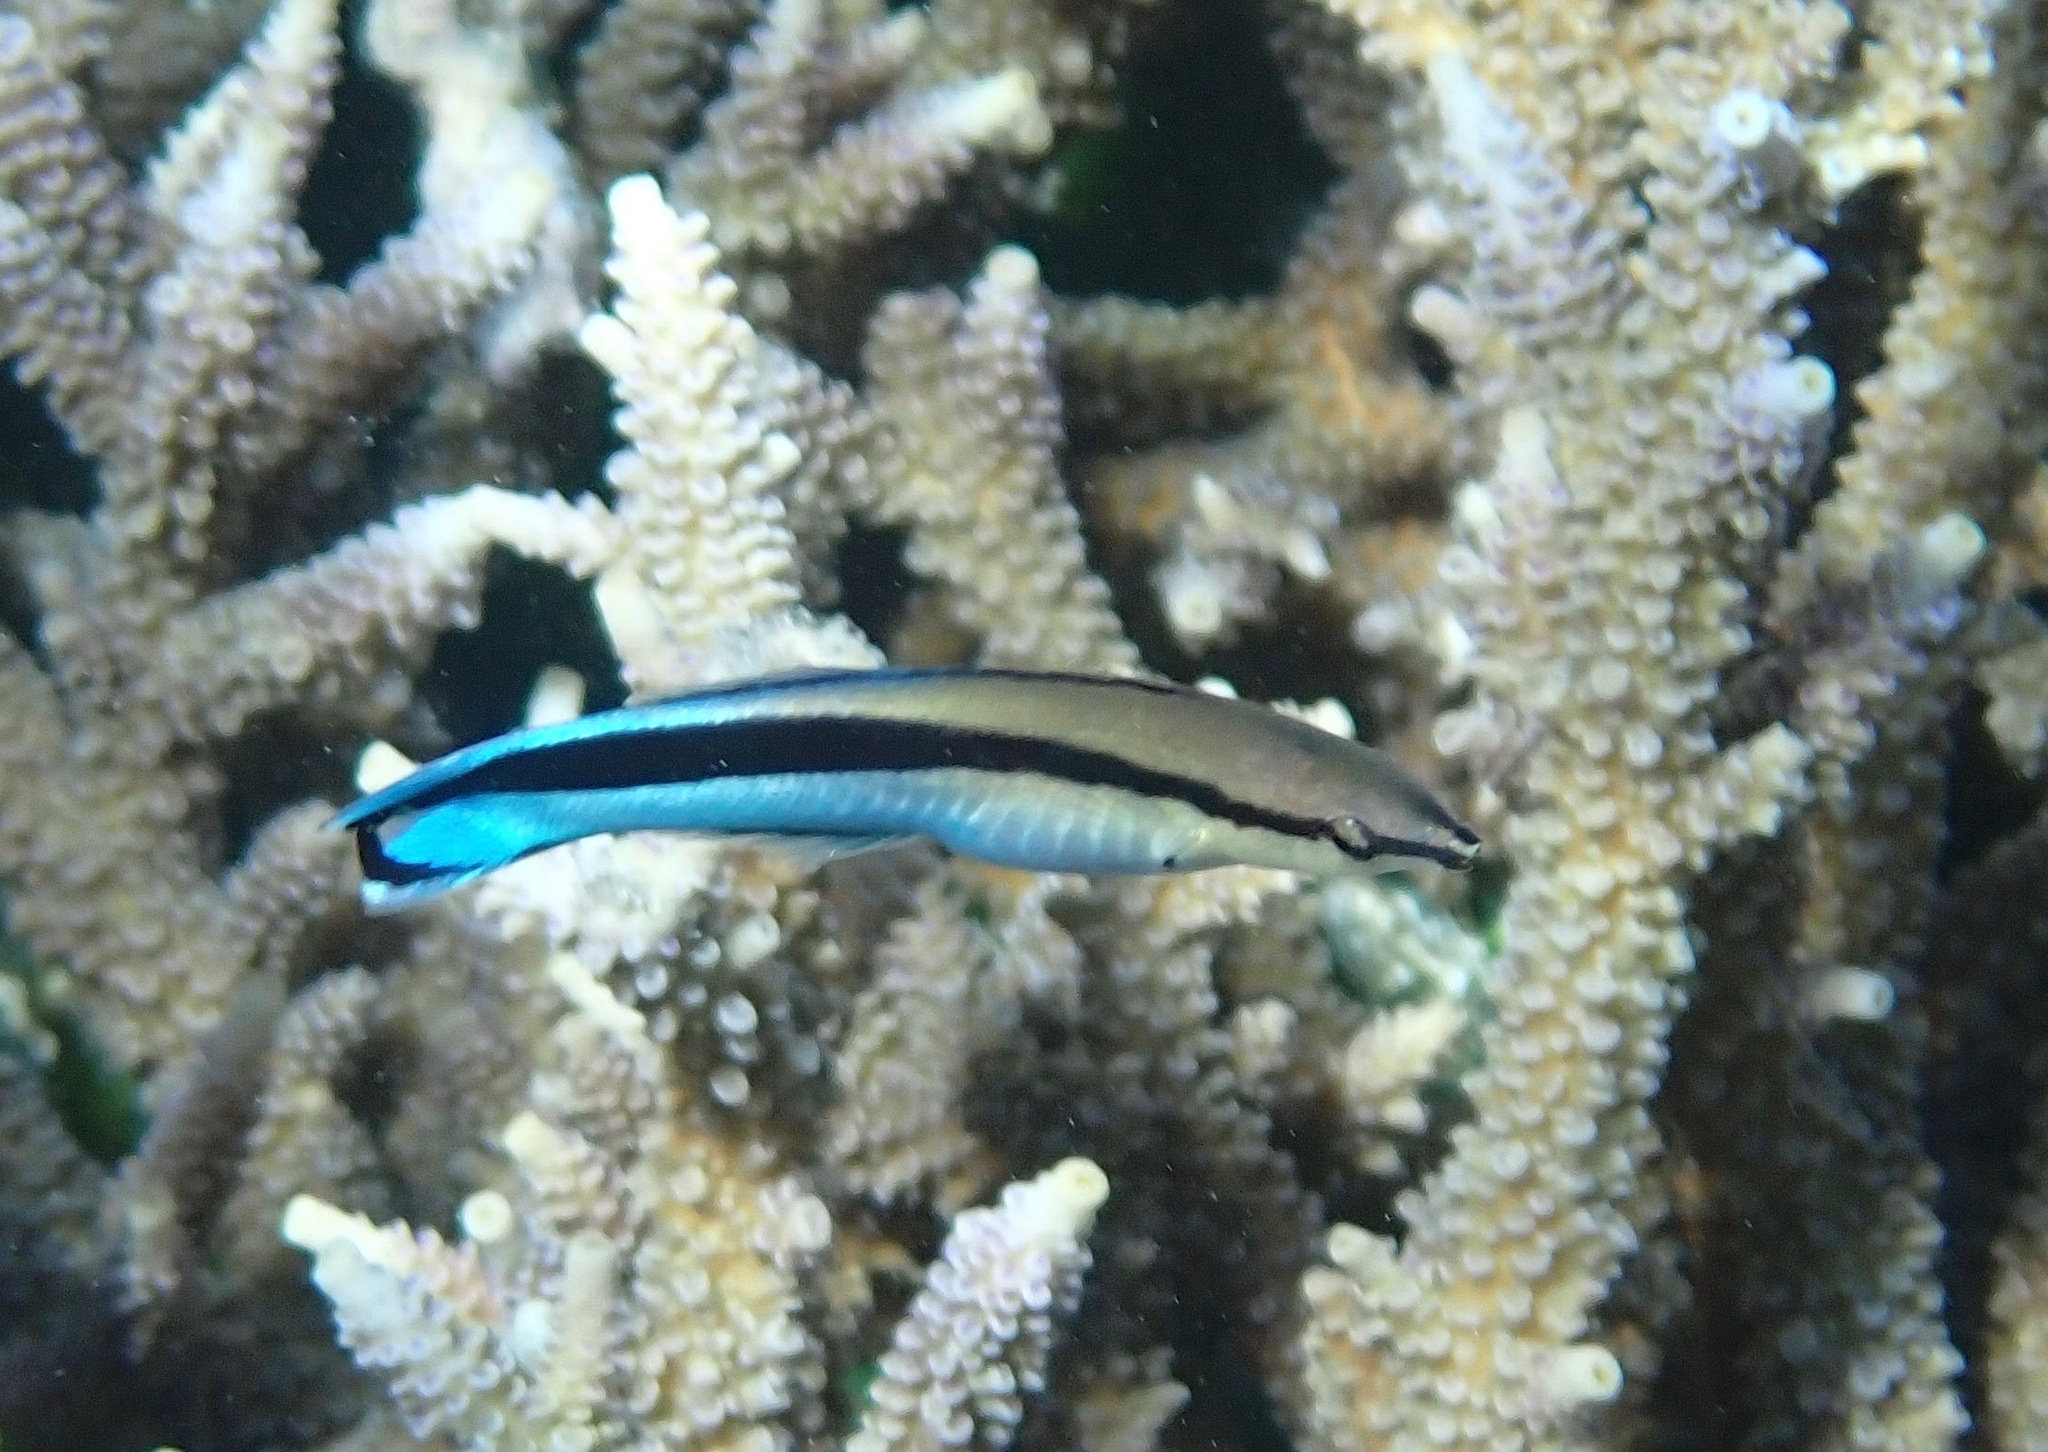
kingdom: Animalia
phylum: Chordata
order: Perciformes
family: Labridae
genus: Labroides
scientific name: Labroides dimidiatus
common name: Blue diesel wrasse
